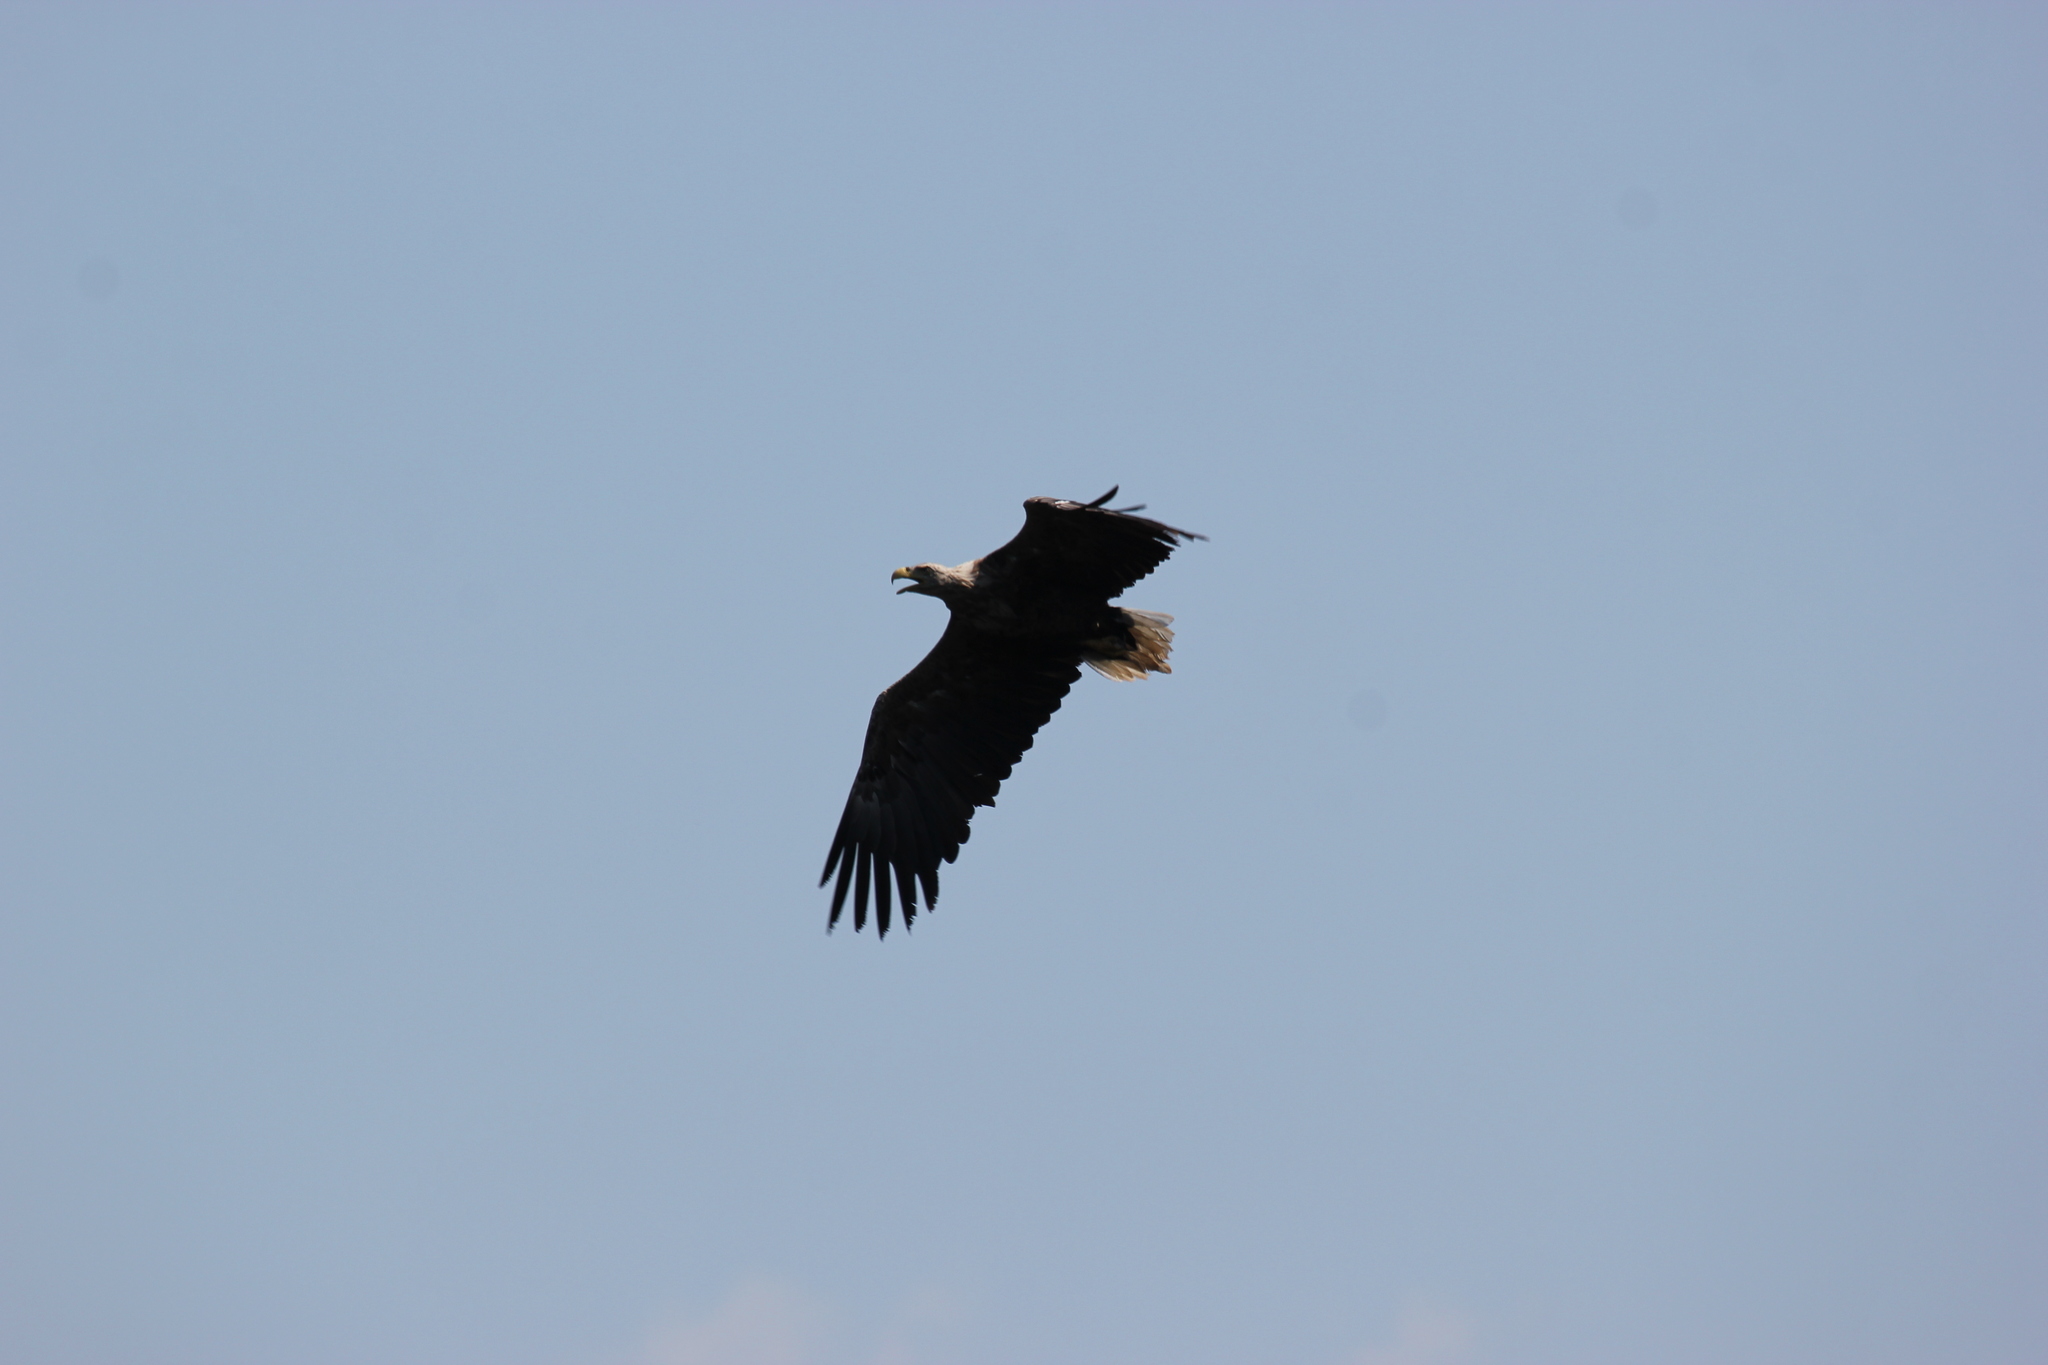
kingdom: Animalia
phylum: Chordata
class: Aves
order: Accipitriformes
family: Accipitridae
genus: Haliaeetus
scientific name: Haliaeetus albicilla
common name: White-tailed eagle
